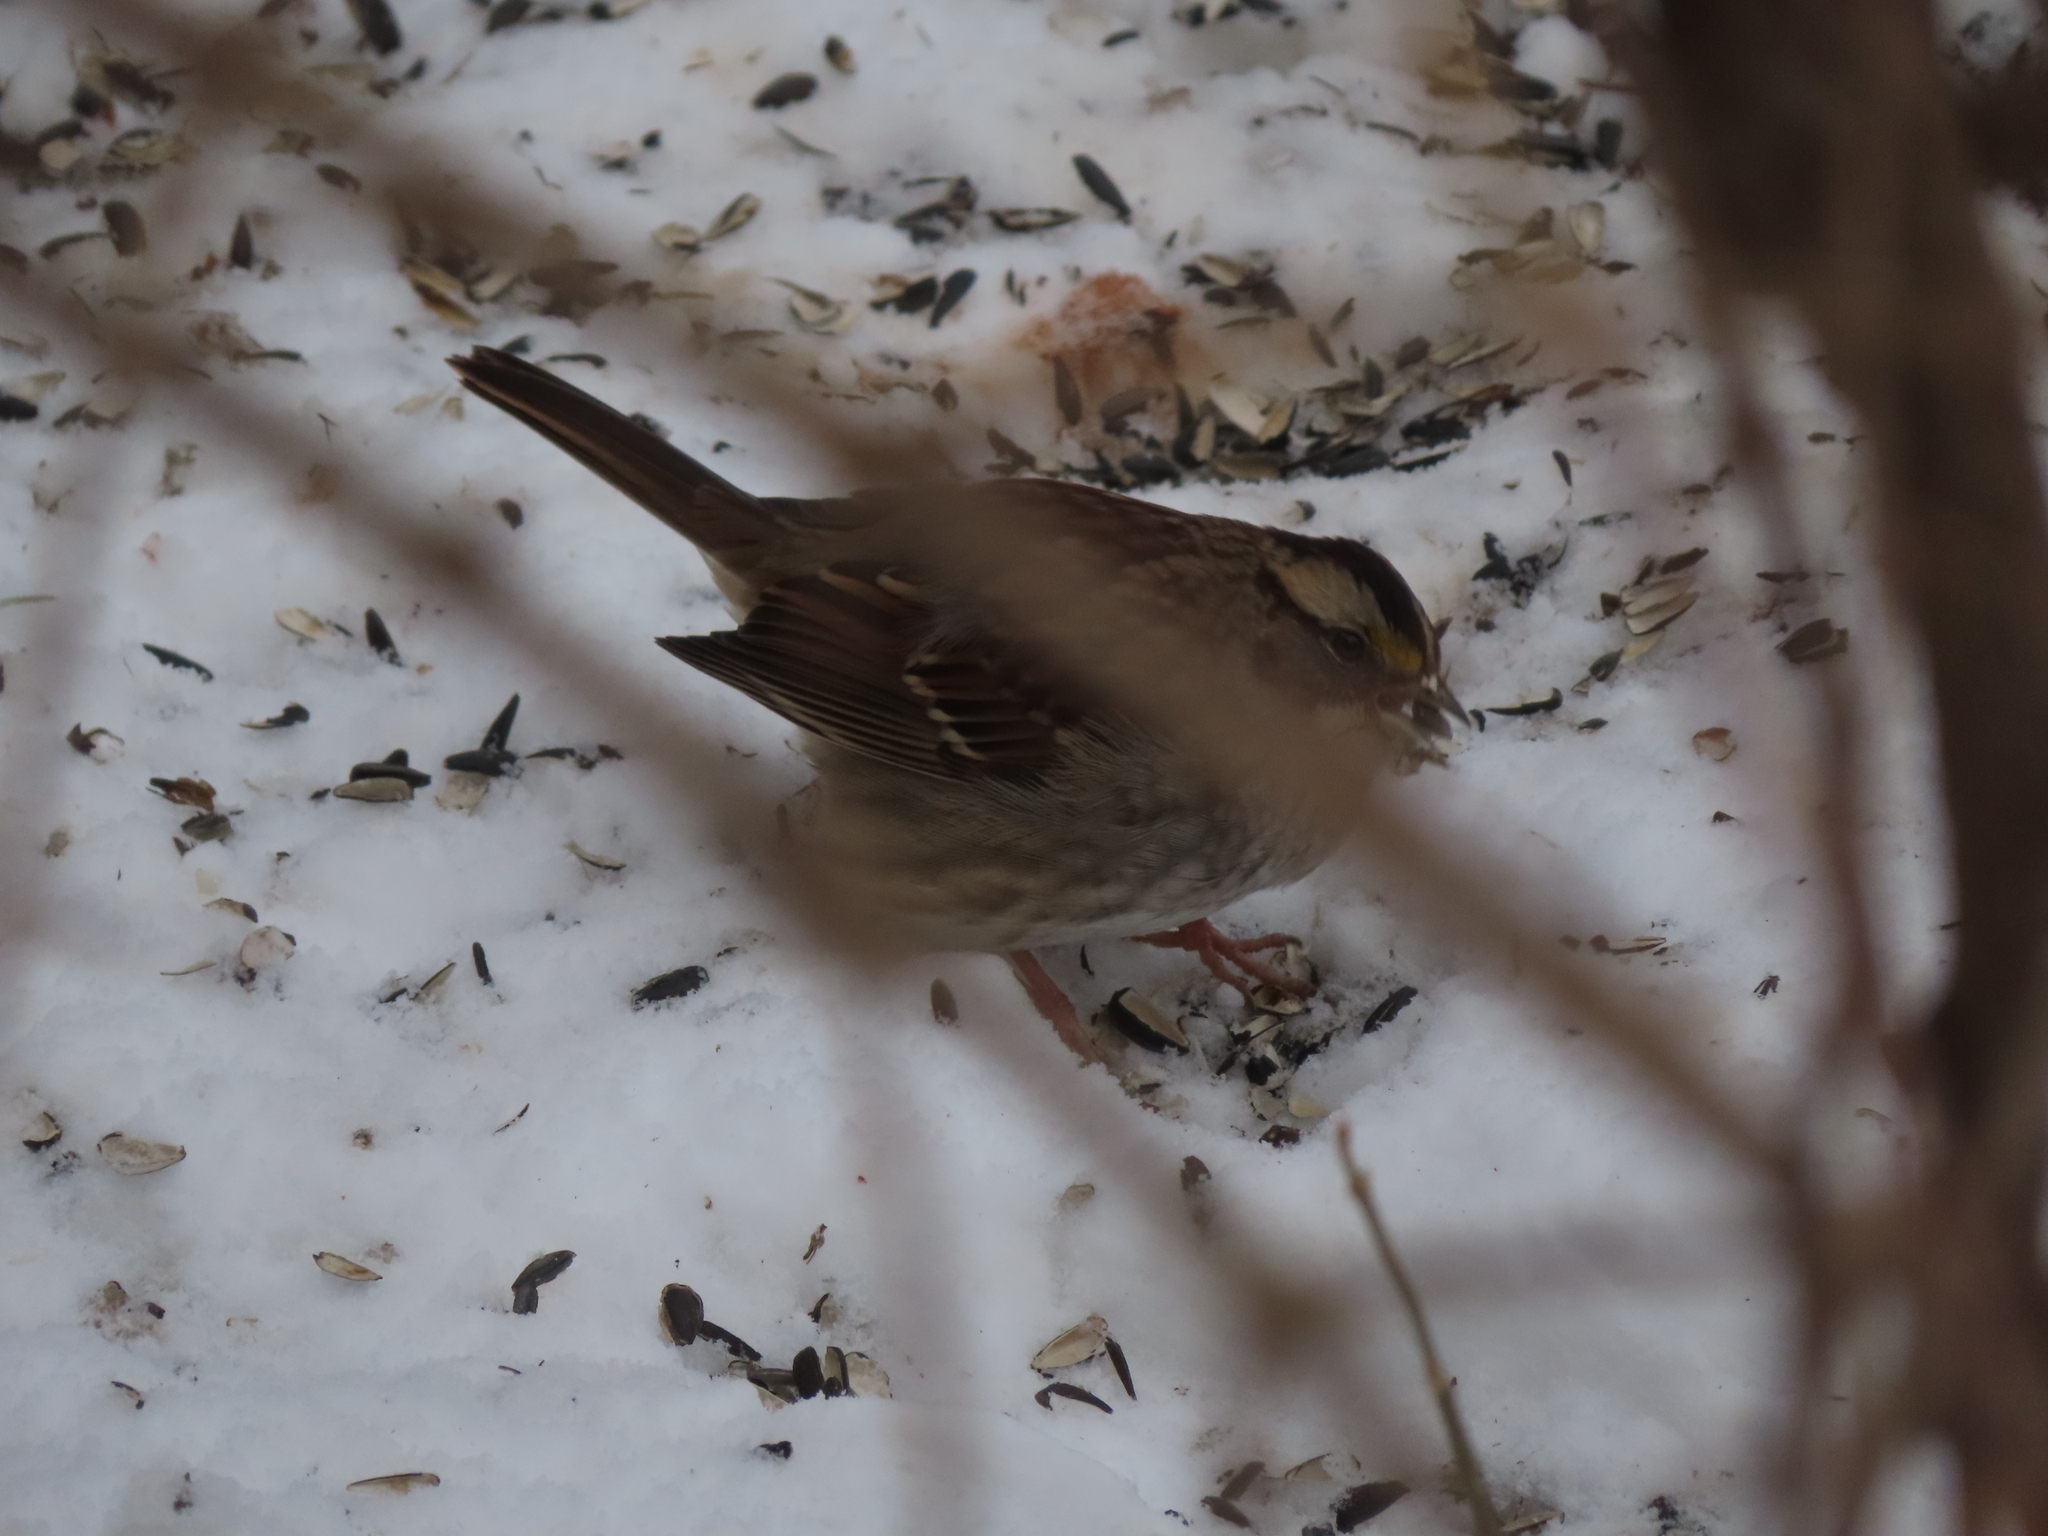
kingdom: Animalia
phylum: Chordata
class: Aves
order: Passeriformes
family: Passerellidae
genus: Zonotrichia
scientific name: Zonotrichia albicollis
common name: White-throated sparrow
